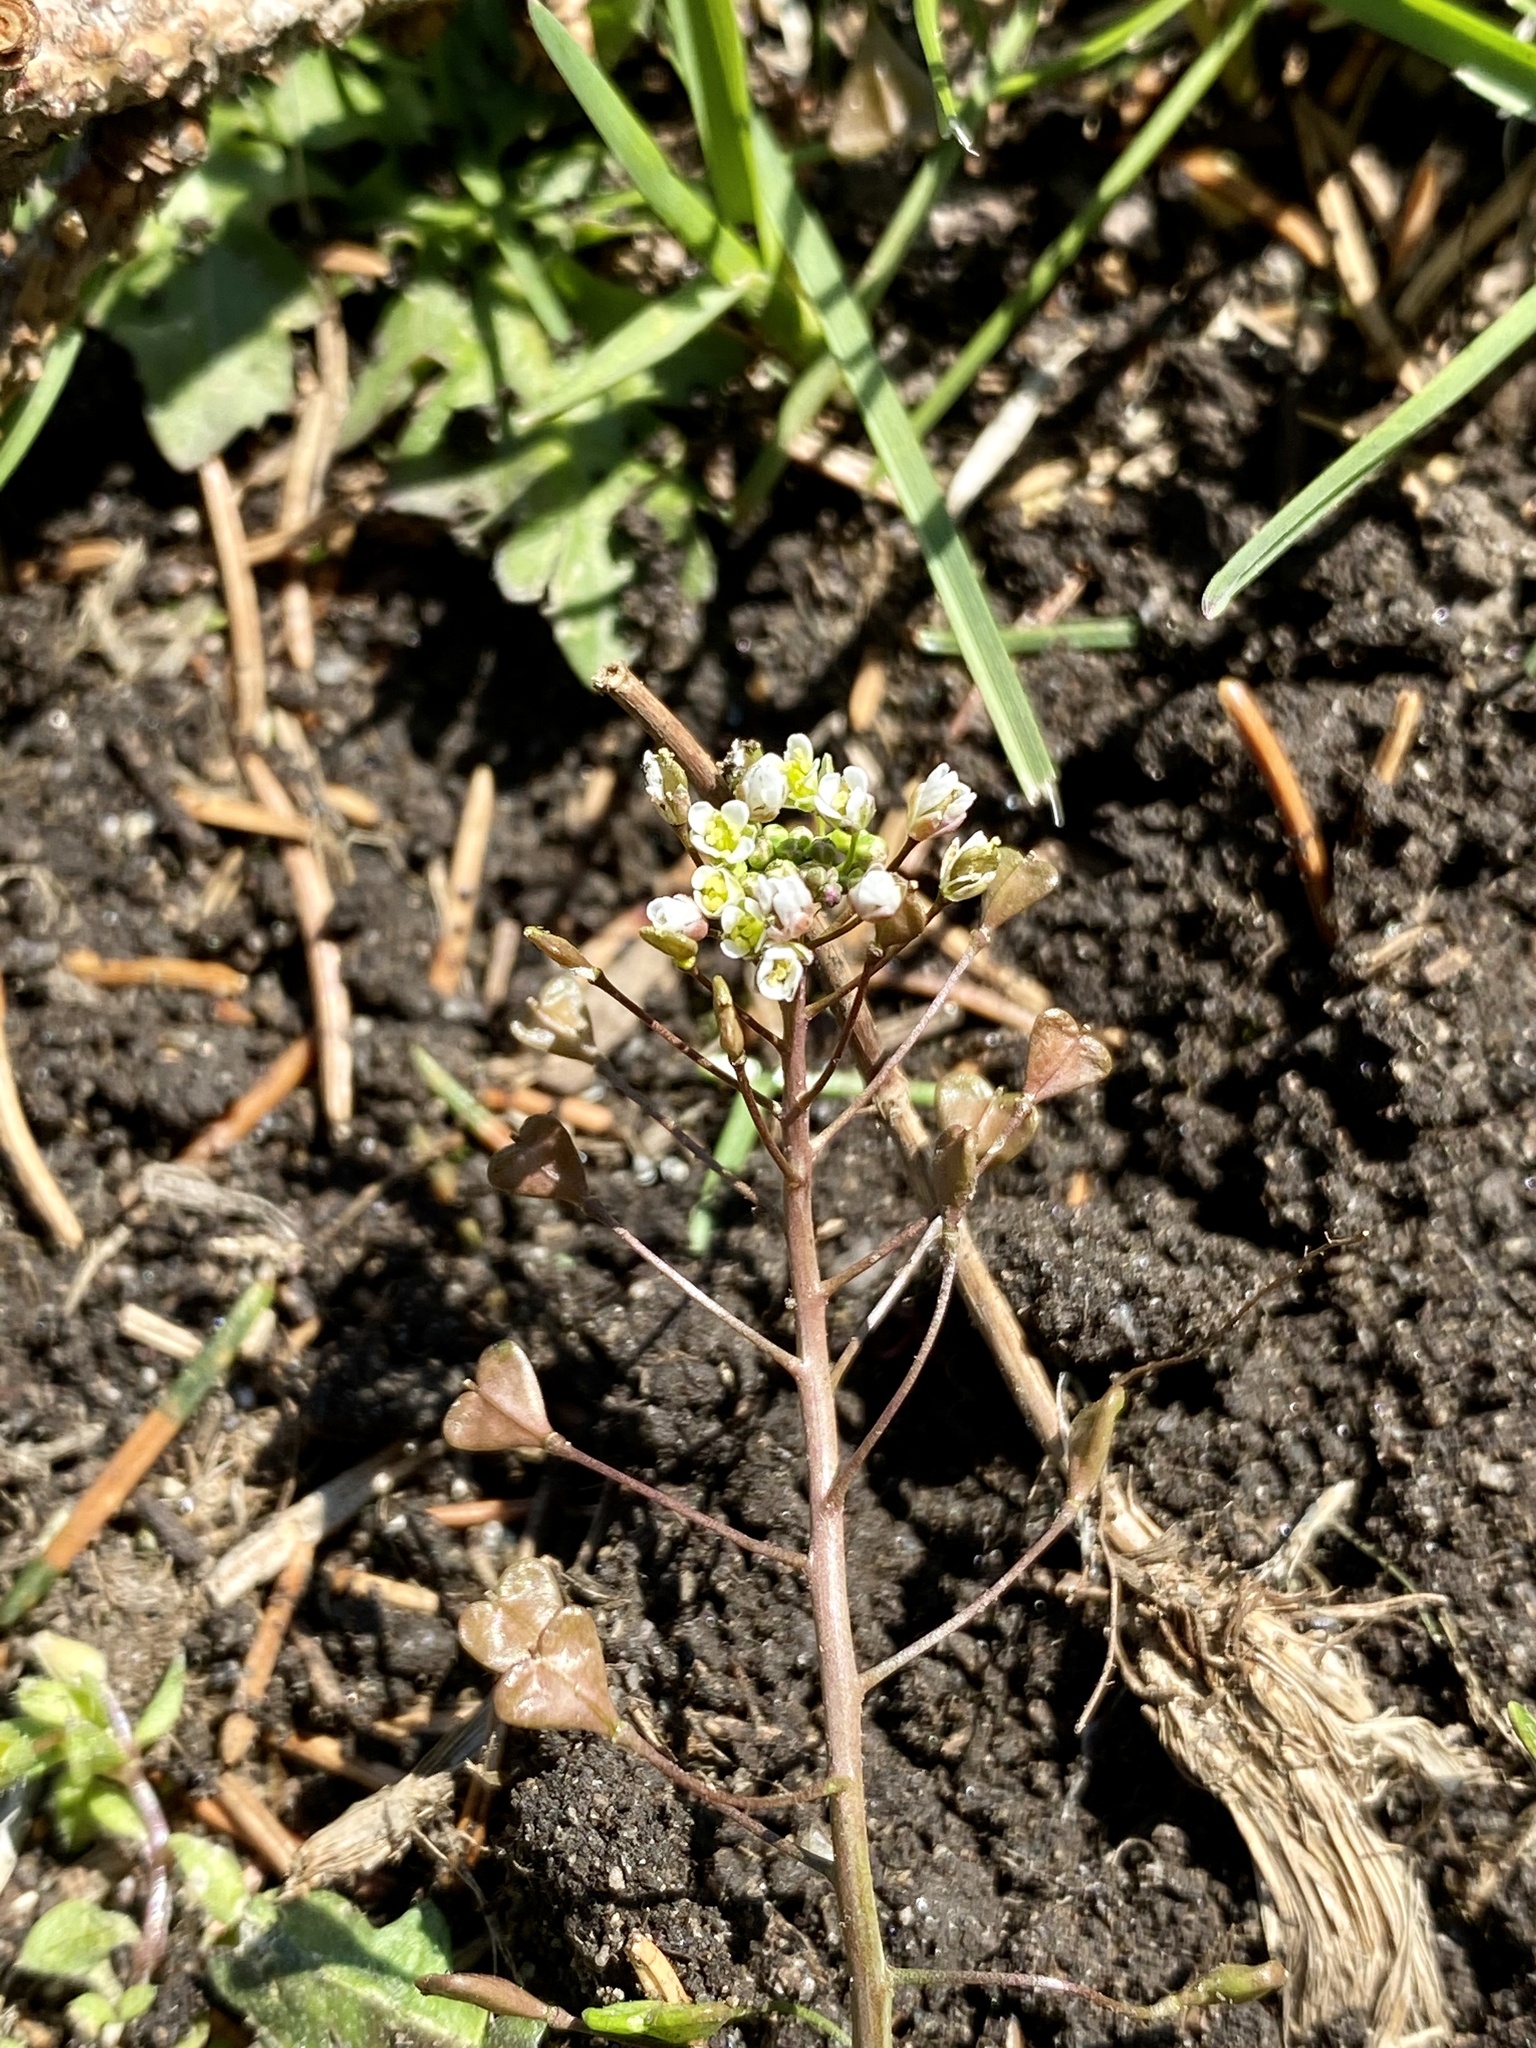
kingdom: Plantae
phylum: Tracheophyta
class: Magnoliopsida
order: Brassicales
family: Brassicaceae
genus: Capsella
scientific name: Capsella bursa-pastoris
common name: Shepherd's purse
